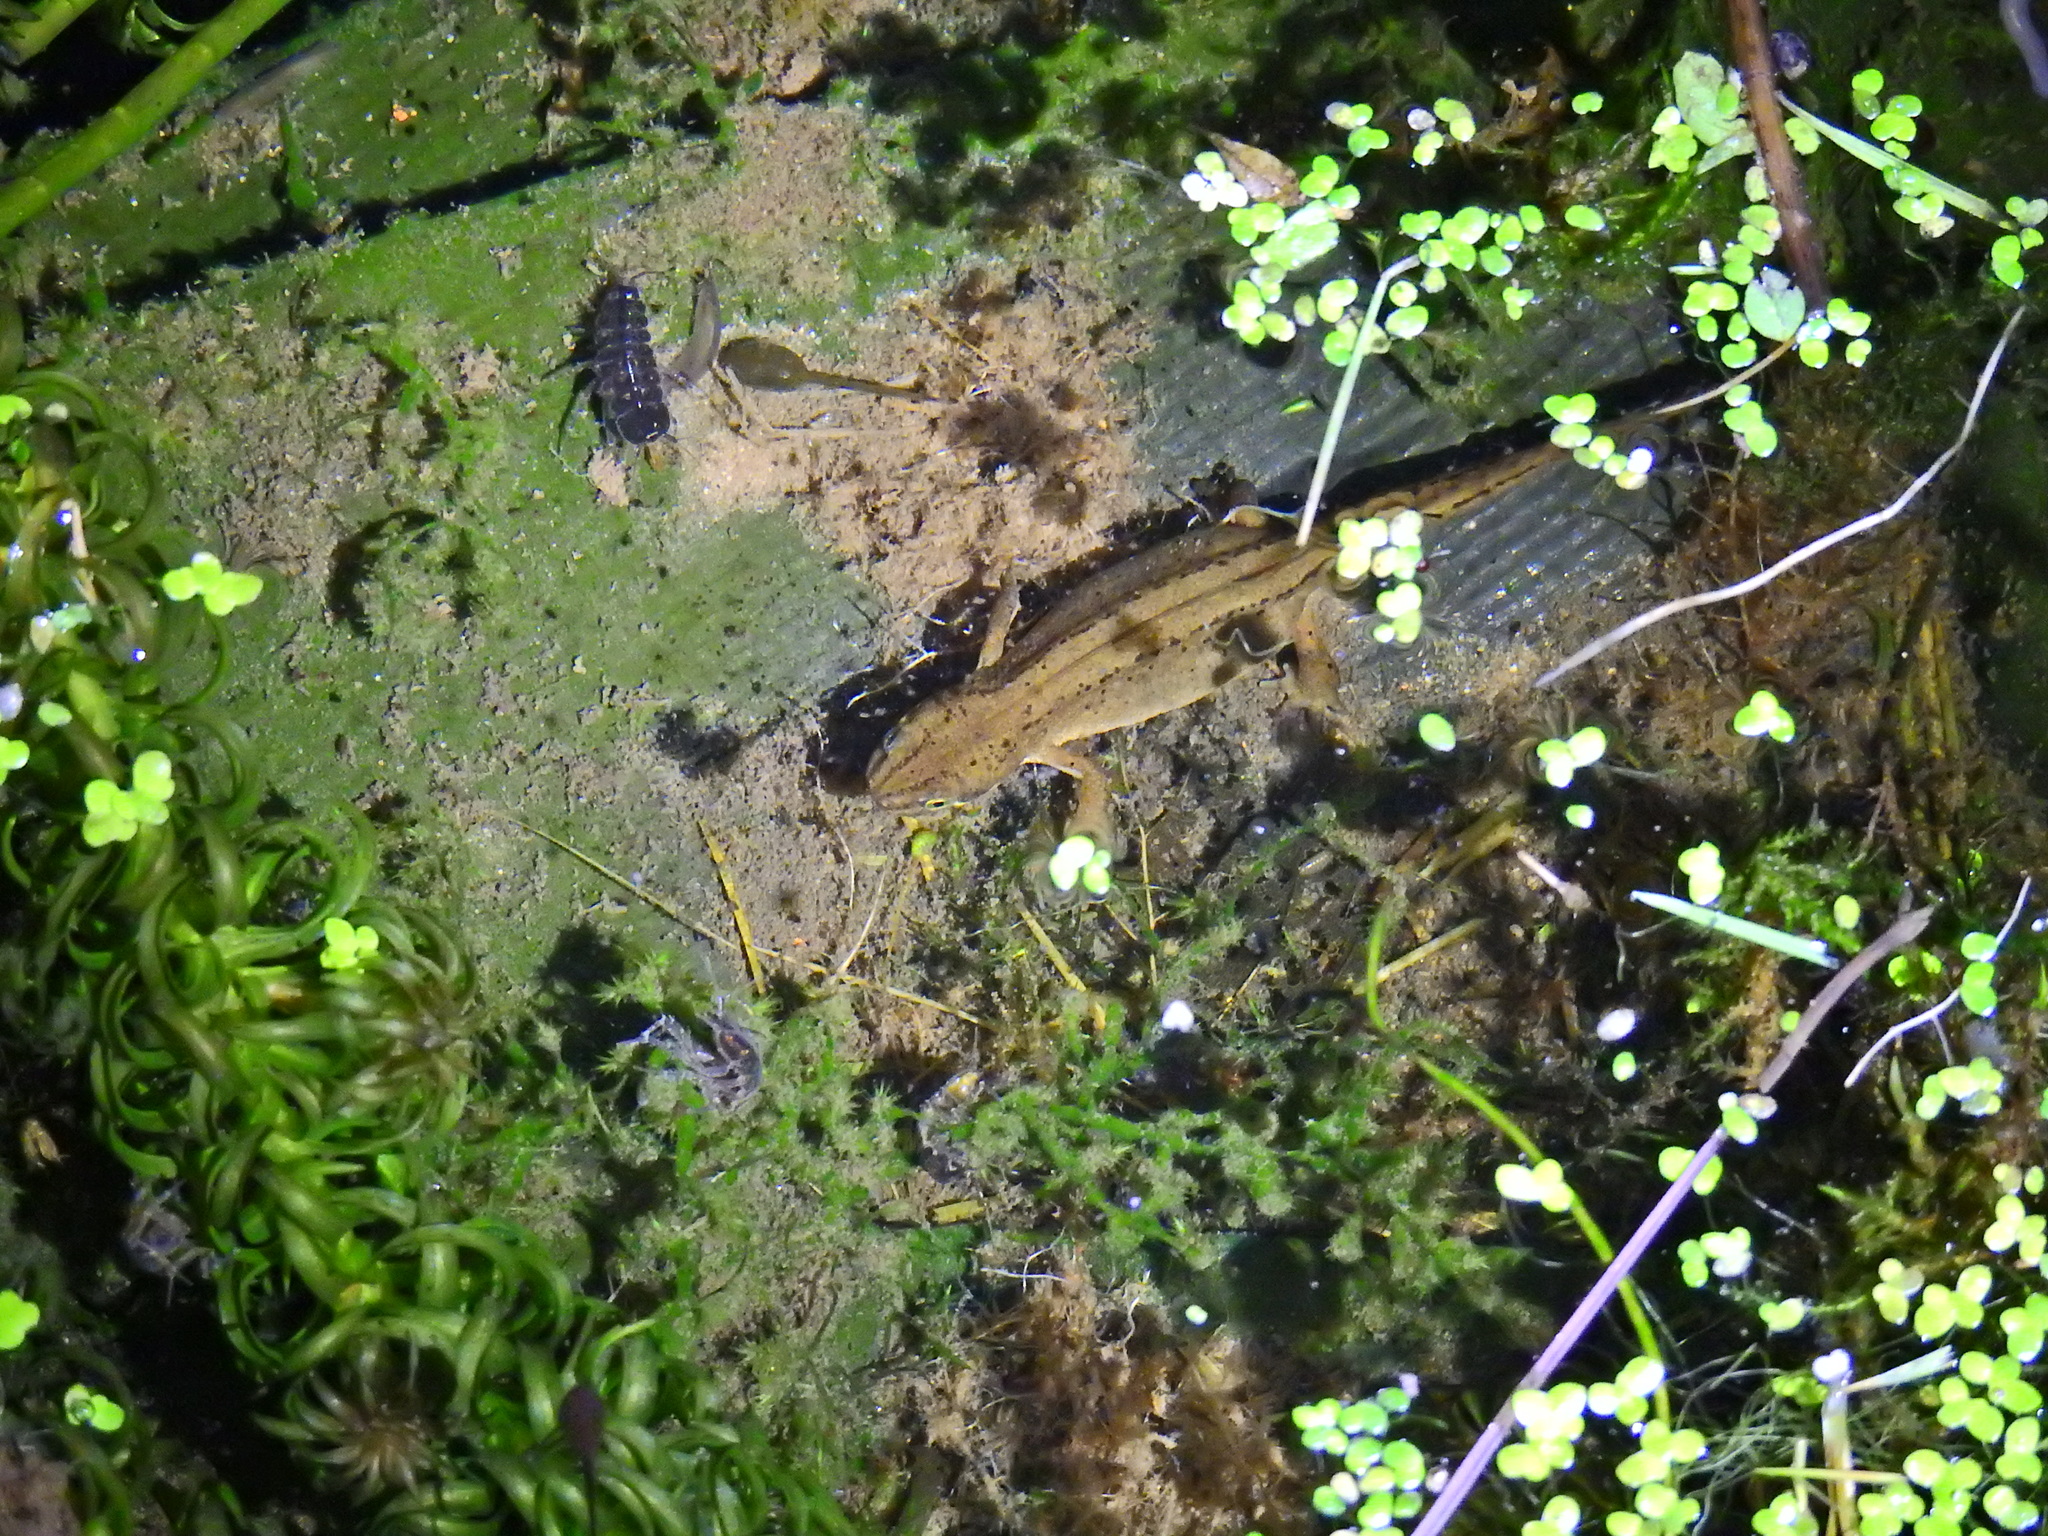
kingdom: Animalia
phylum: Chordata
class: Amphibia
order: Caudata
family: Salamandridae
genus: Lissotriton
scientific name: Lissotriton vulgaris
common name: Smooth newt
